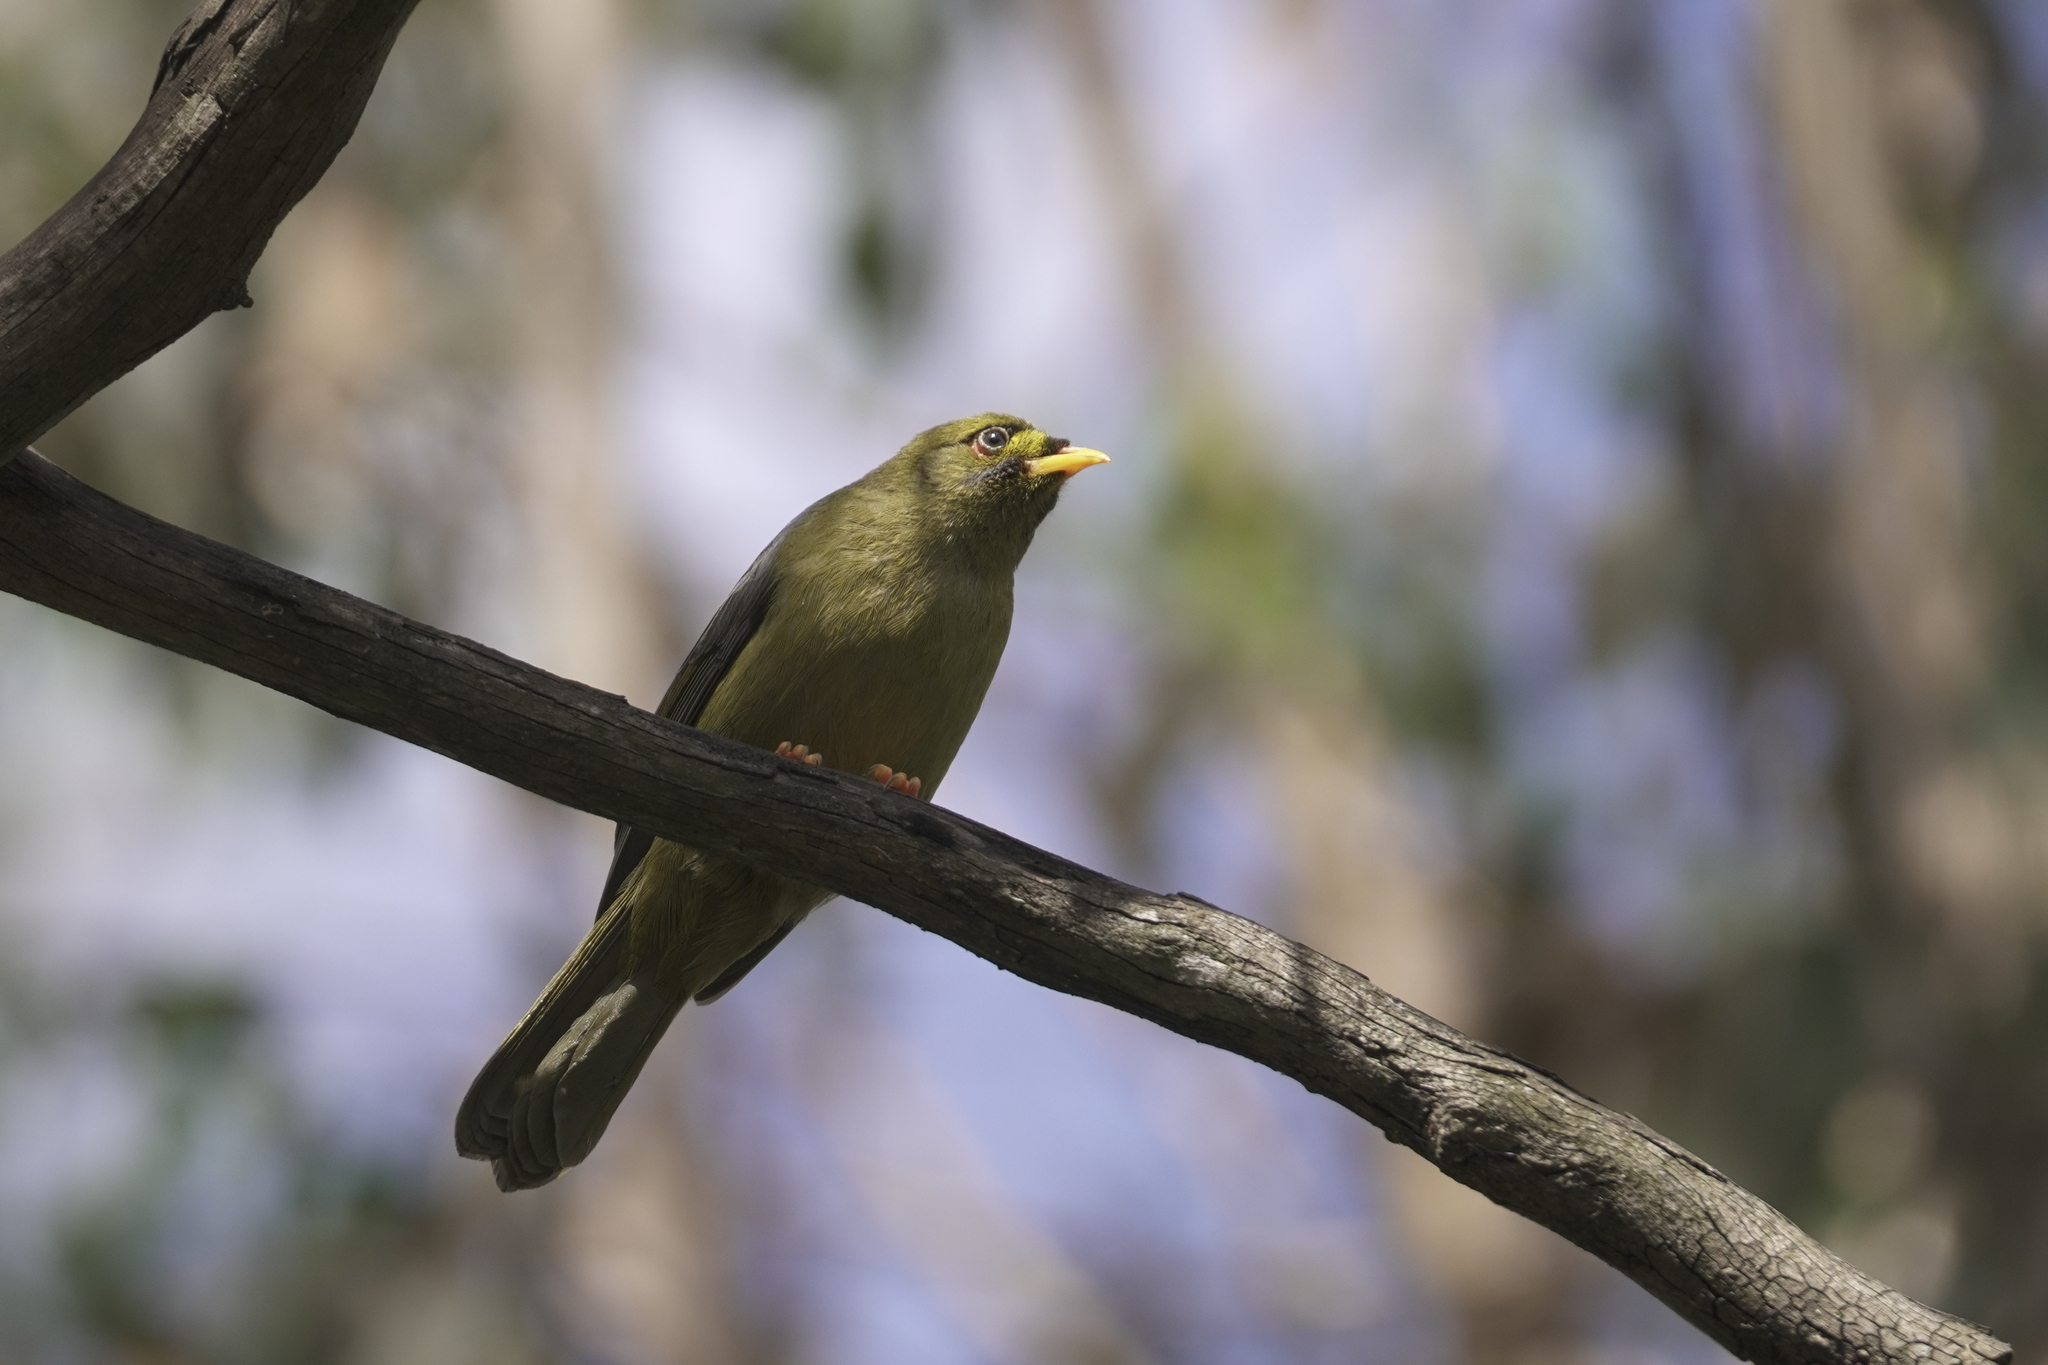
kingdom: Animalia
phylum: Chordata
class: Aves
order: Passeriformes
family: Meliphagidae
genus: Manorina
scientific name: Manorina melanophrys
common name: Bell miner
